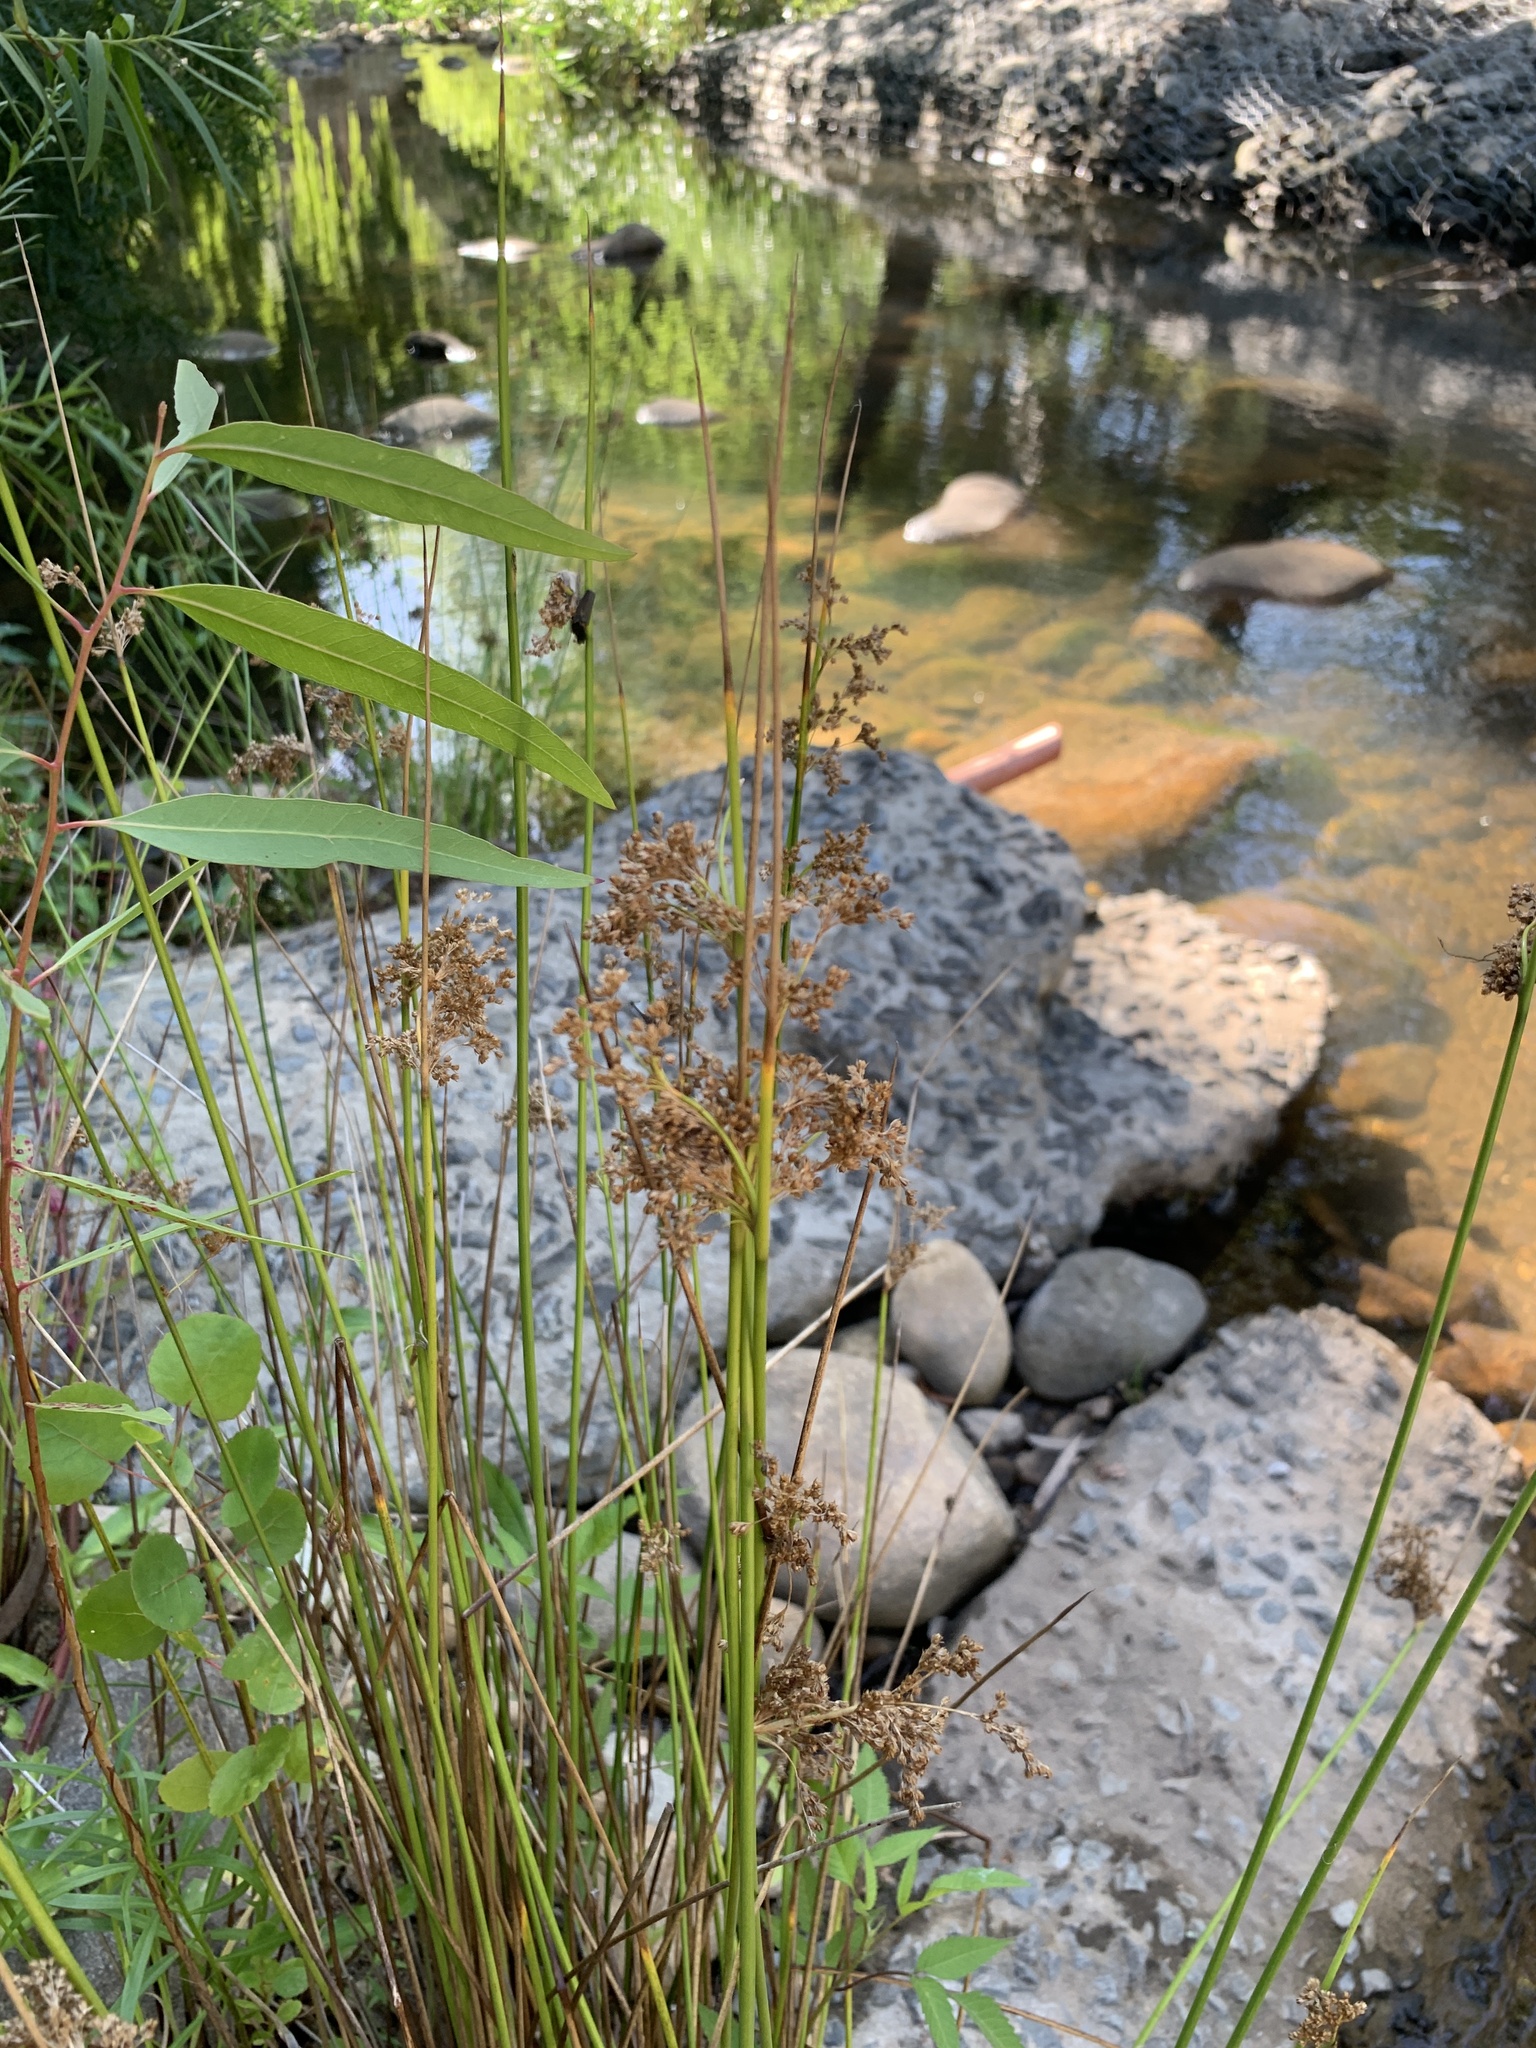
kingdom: Plantae
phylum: Tracheophyta
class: Liliopsida
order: Poales
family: Juncaceae
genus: Juncus
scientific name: Juncus effusus
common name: Soft rush
